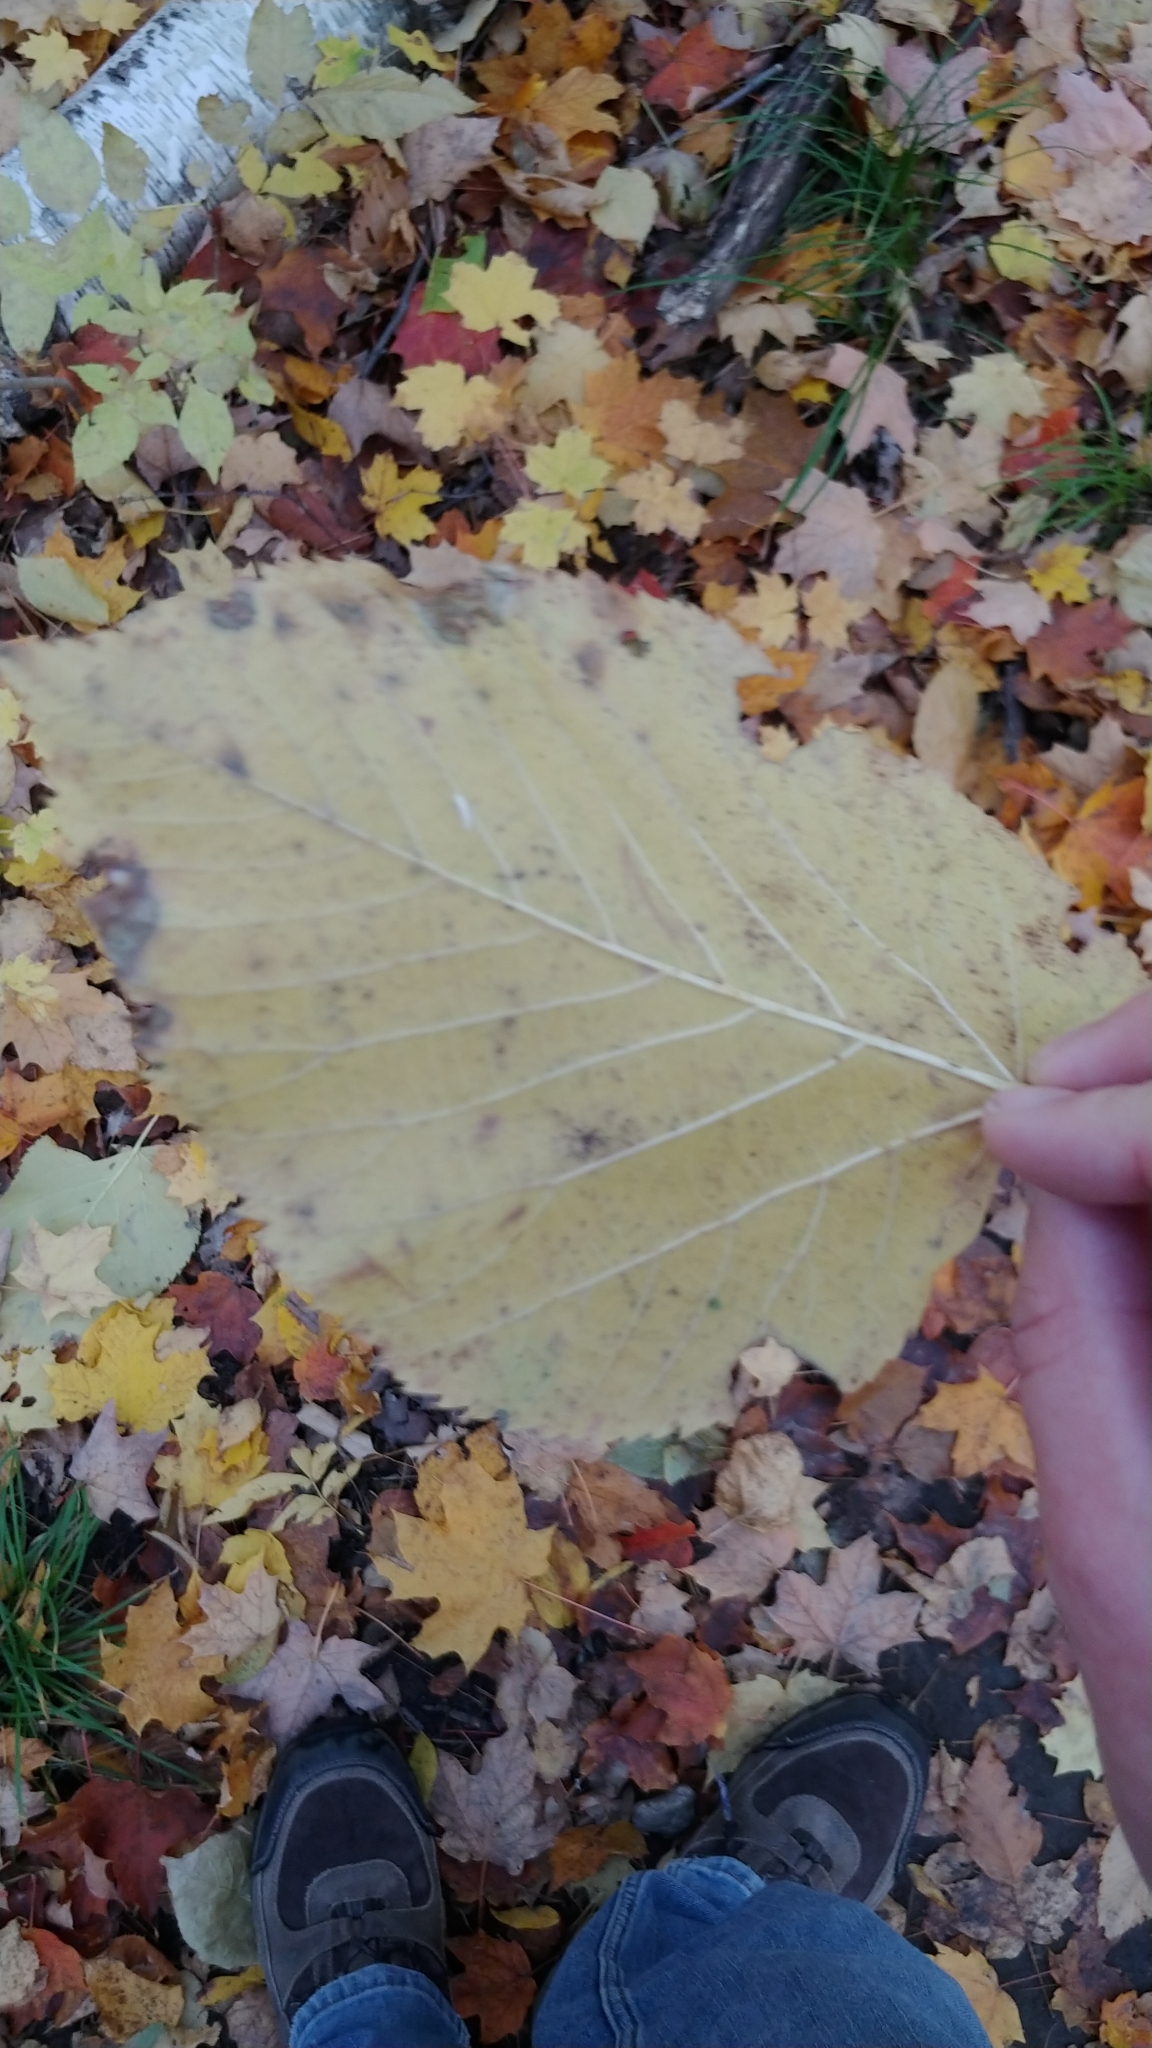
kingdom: Plantae
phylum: Tracheophyta
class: Magnoliopsida
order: Malvales
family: Malvaceae
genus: Tilia
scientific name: Tilia americana
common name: Basswood
